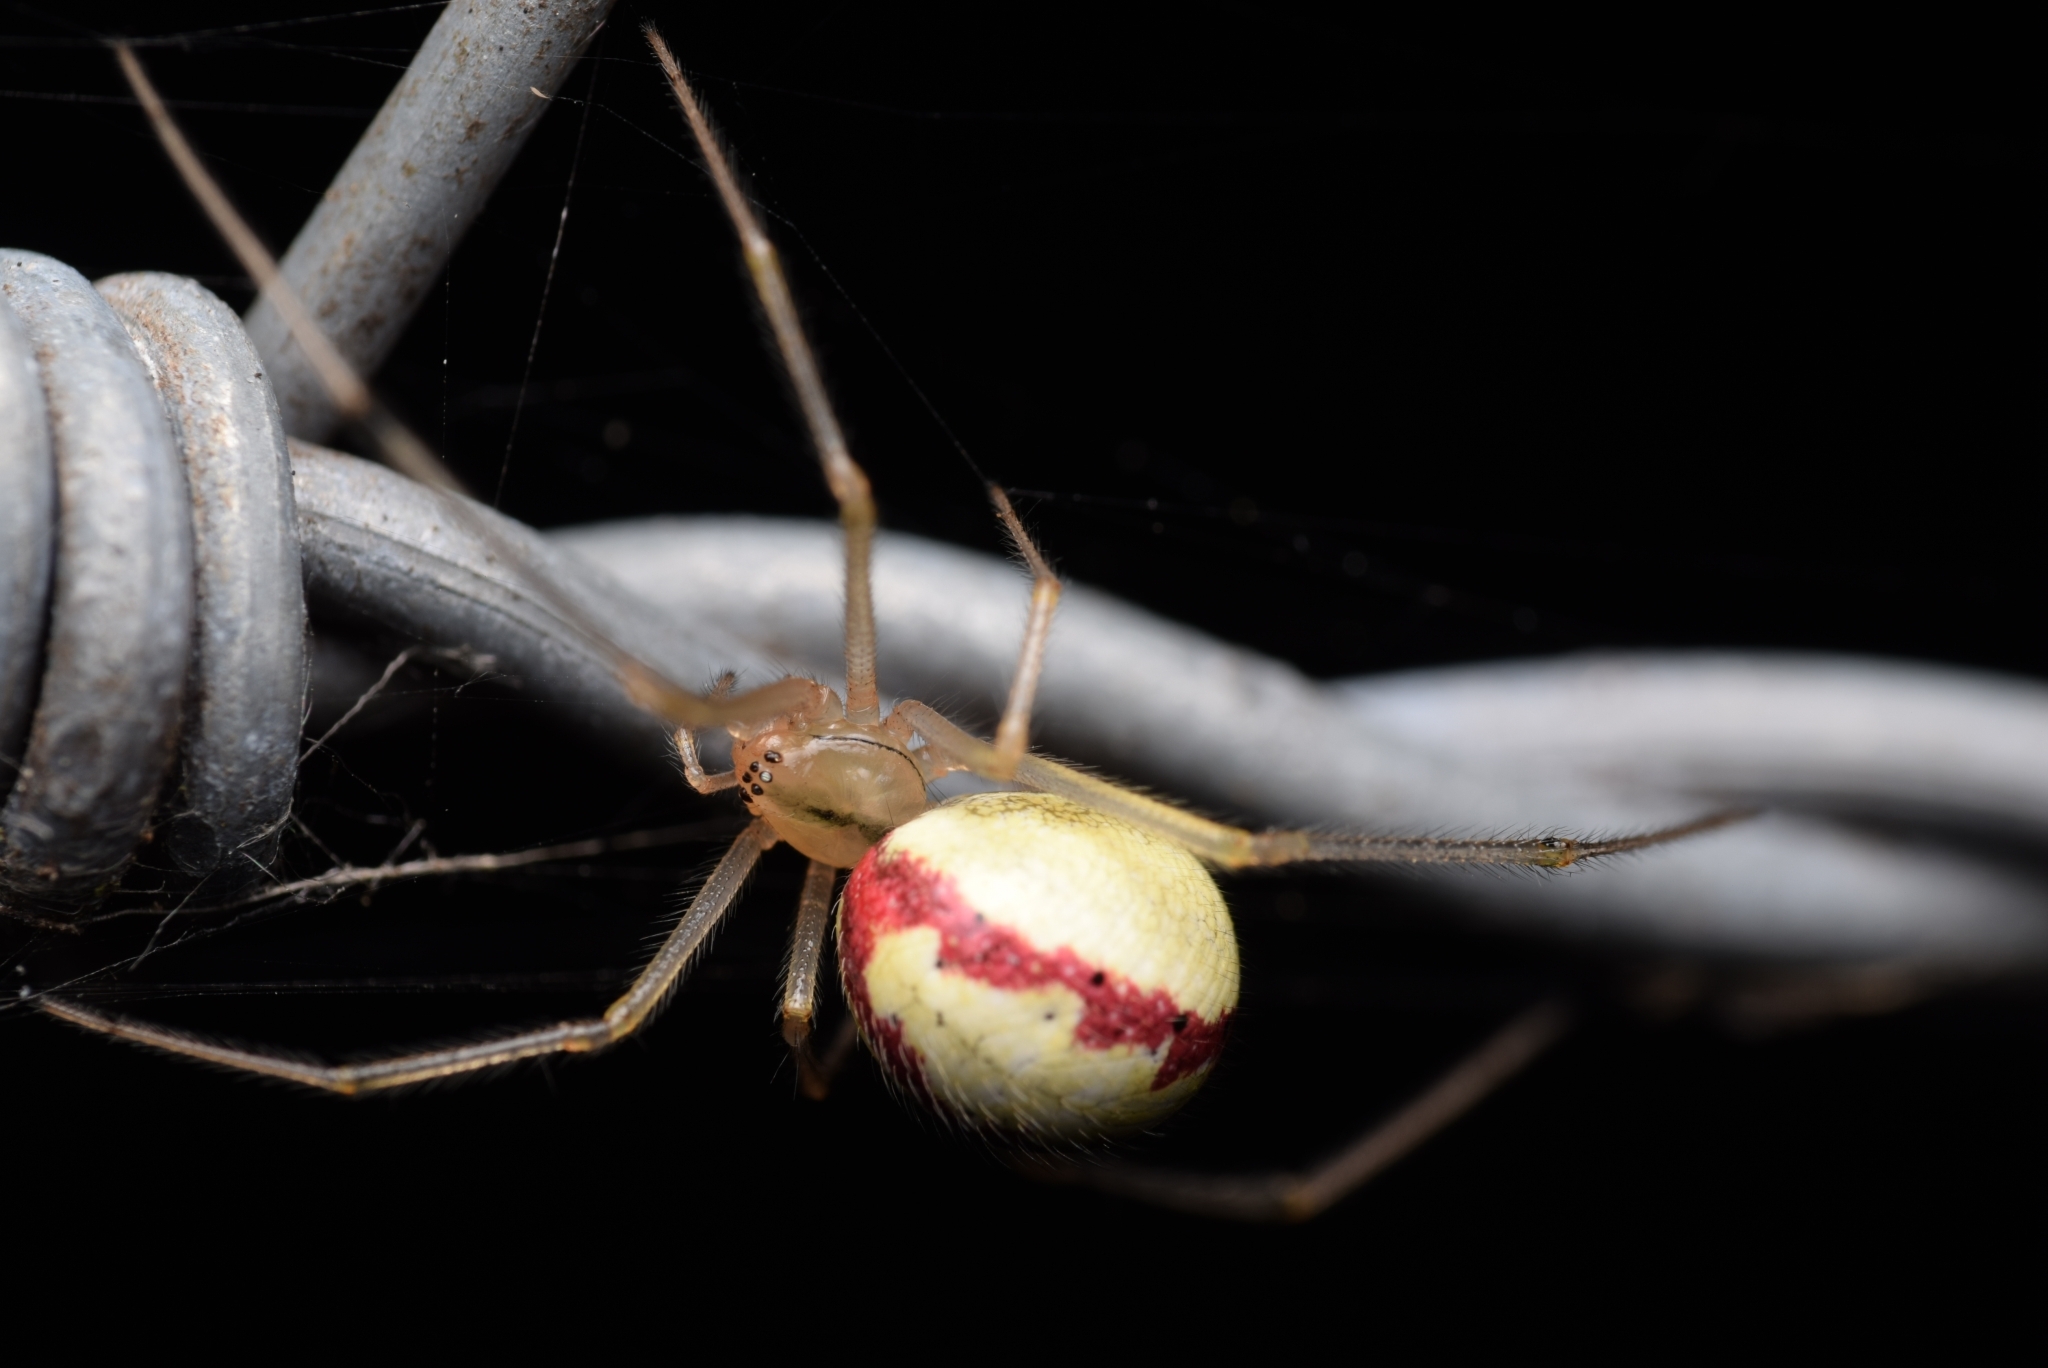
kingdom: Animalia
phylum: Arthropoda
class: Arachnida
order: Araneae
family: Theridiidae
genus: Enoplognatha
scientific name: Enoplognatha
